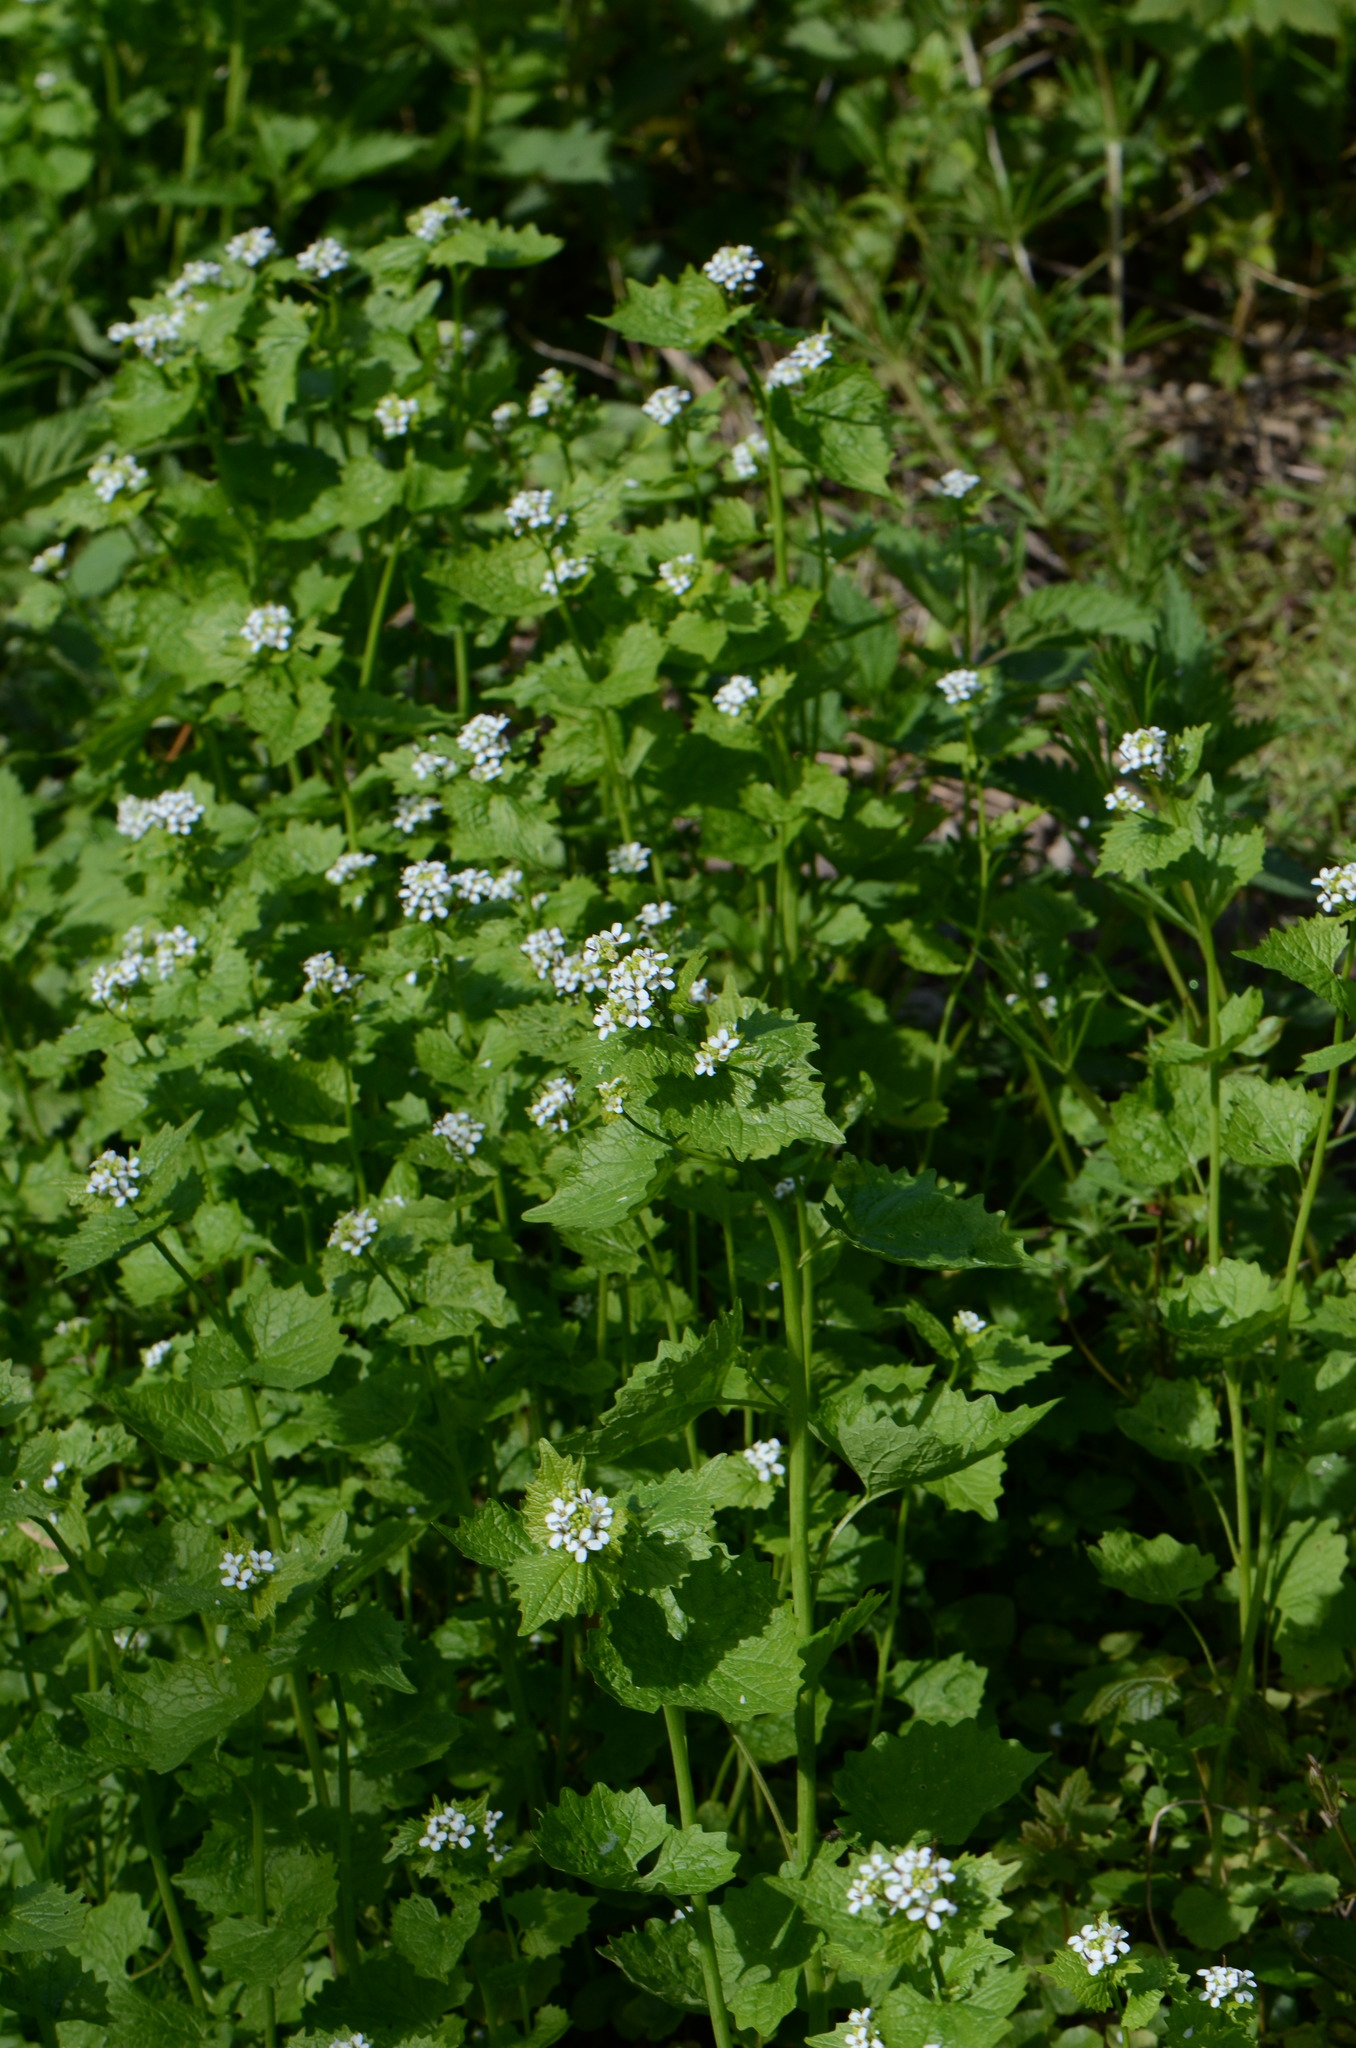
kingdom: Plantae
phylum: Tracheophyta
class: Magnoliopsida
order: Brassicales
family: Brassicaceae
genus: Alliaria
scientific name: Alliaria petiolata
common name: Garlic mustard
